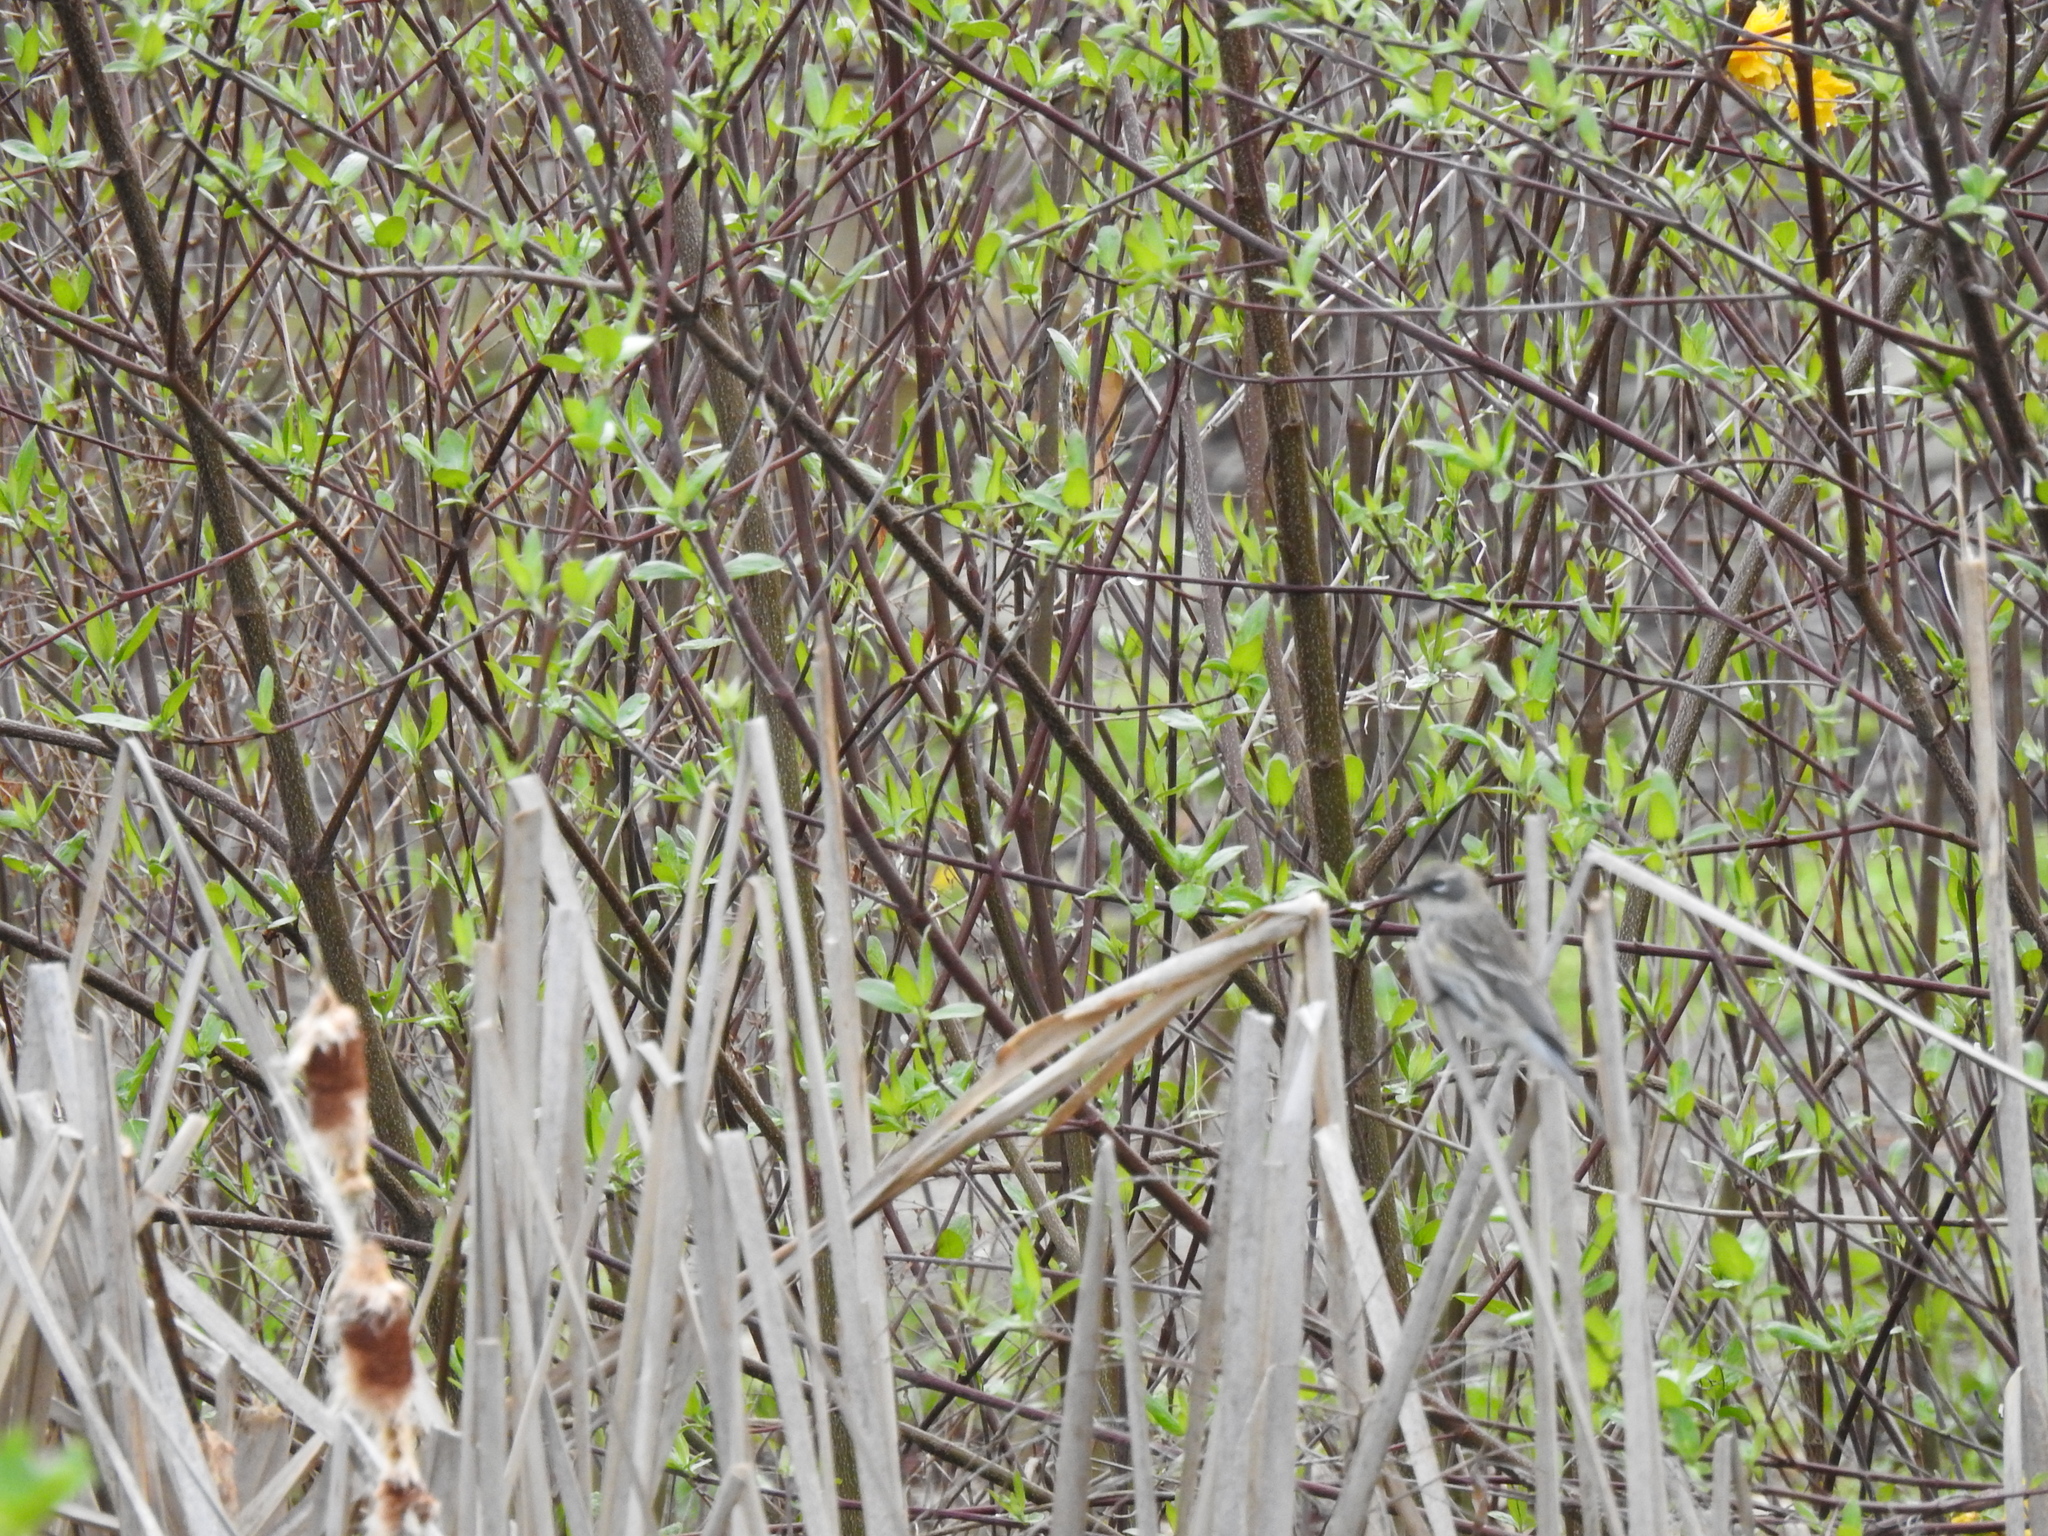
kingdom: Animalia
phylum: Chordata
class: Aves
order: Passeriformes
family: Parulidae
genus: Setophaga
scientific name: Setophaga coronata
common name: Myrtle warbler
